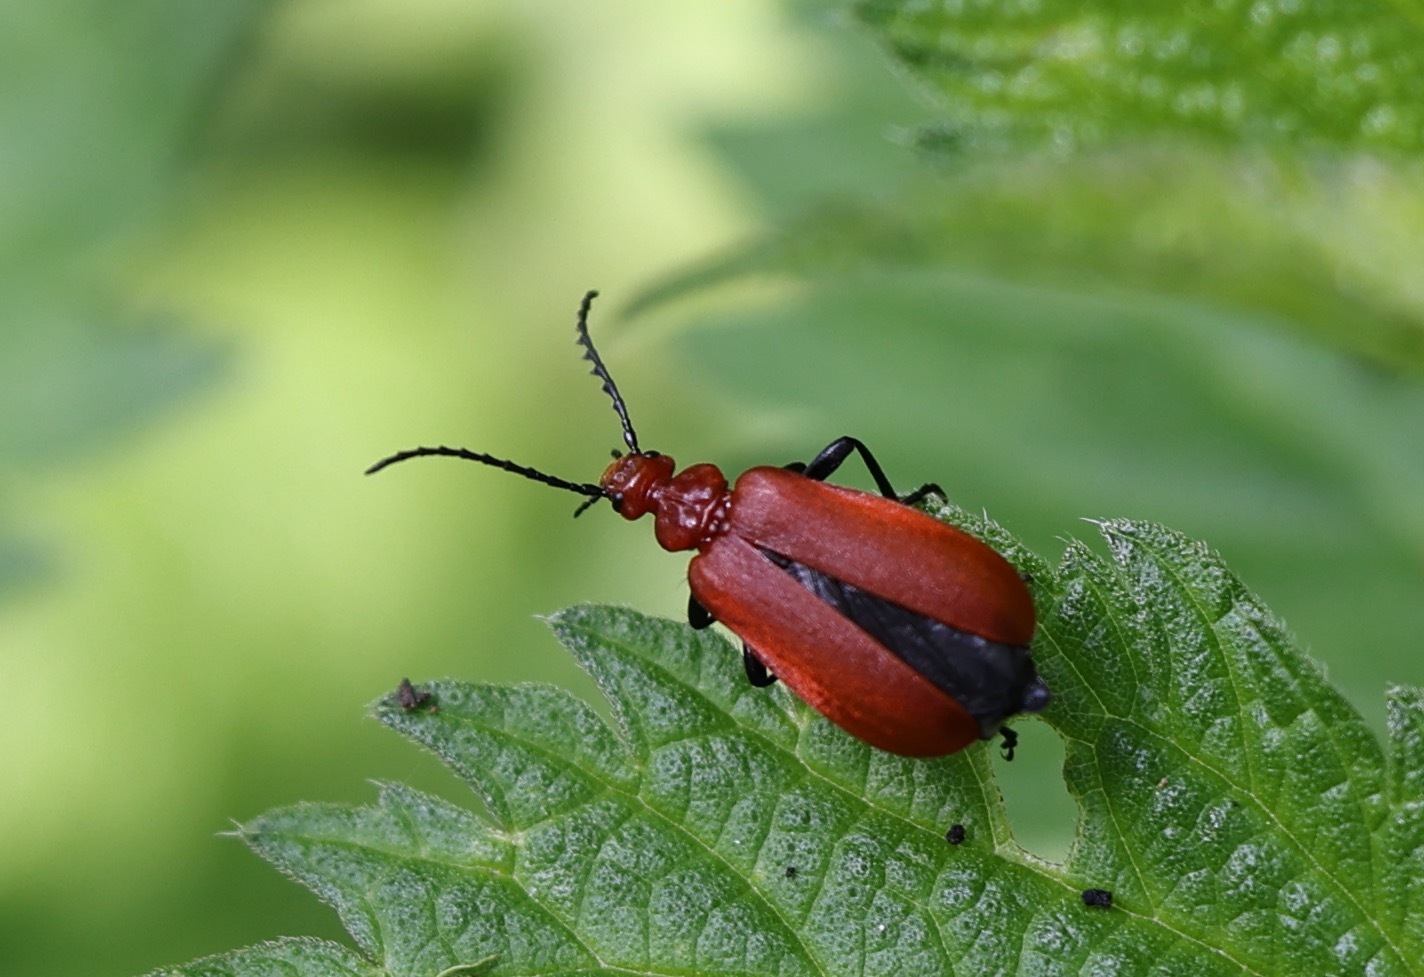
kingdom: Animalia
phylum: Arthropoda
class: Insecta
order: Coleoptera
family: Pyrochroidae
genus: Pyrochroa
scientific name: Pyrochroa serraticornis
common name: Red-headed cardinal beetle
